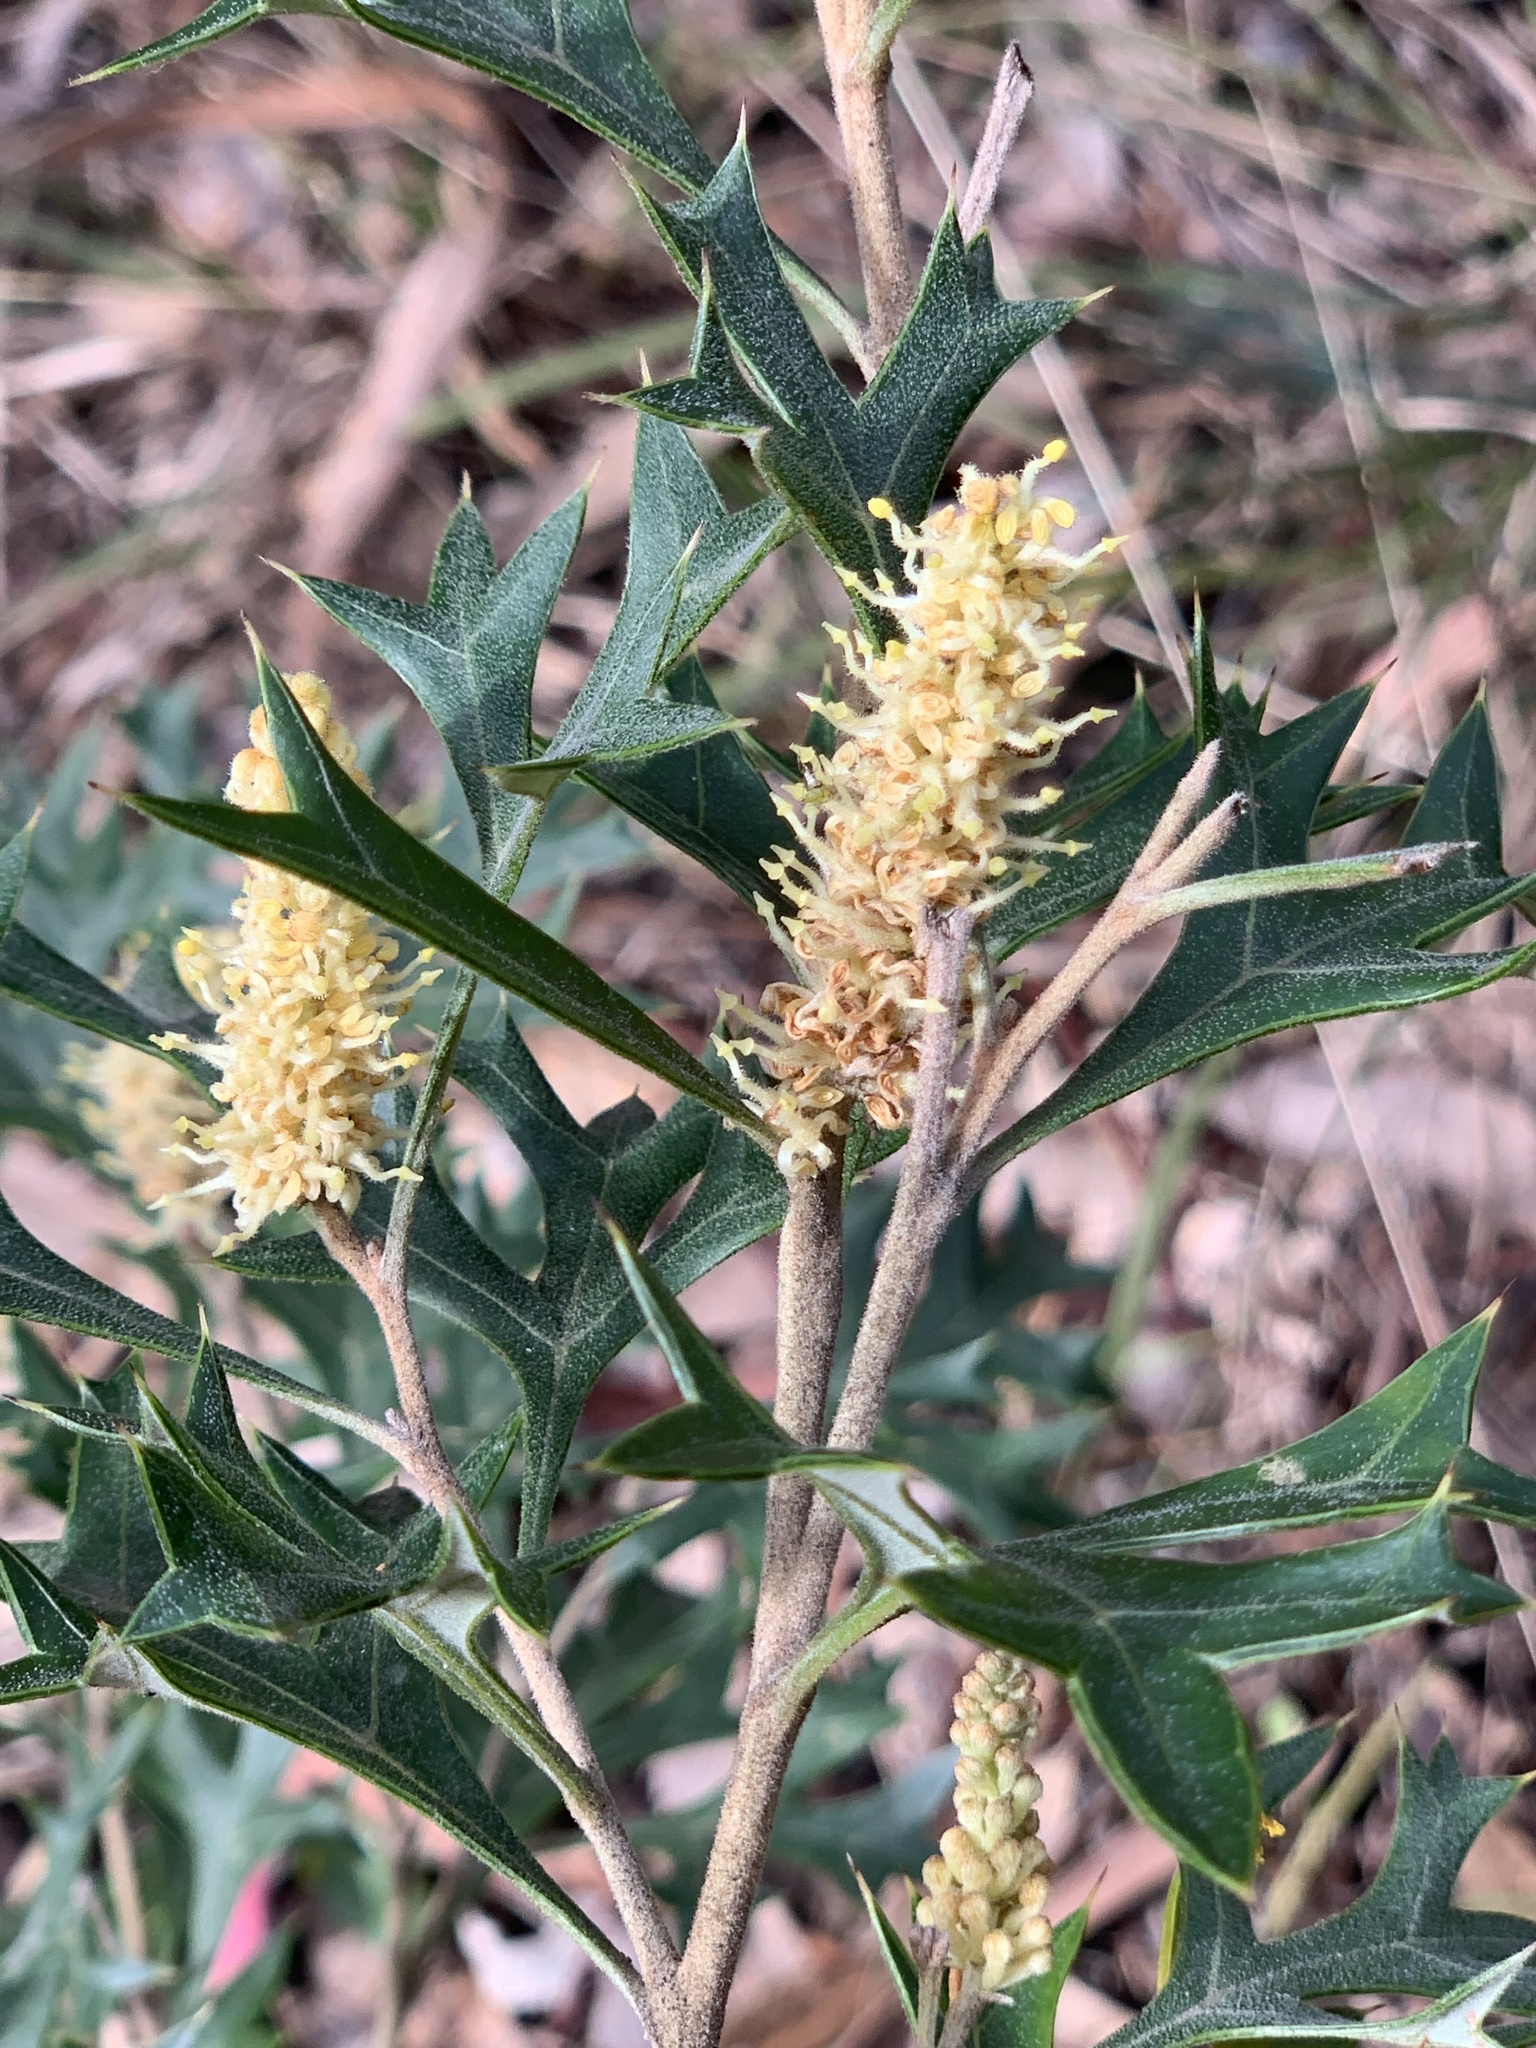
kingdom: Plantae
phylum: Tracheophyta
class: Magnoliopsida
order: Proteales
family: Proteaceae
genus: Grevillea
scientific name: Grevillea ramosissima
